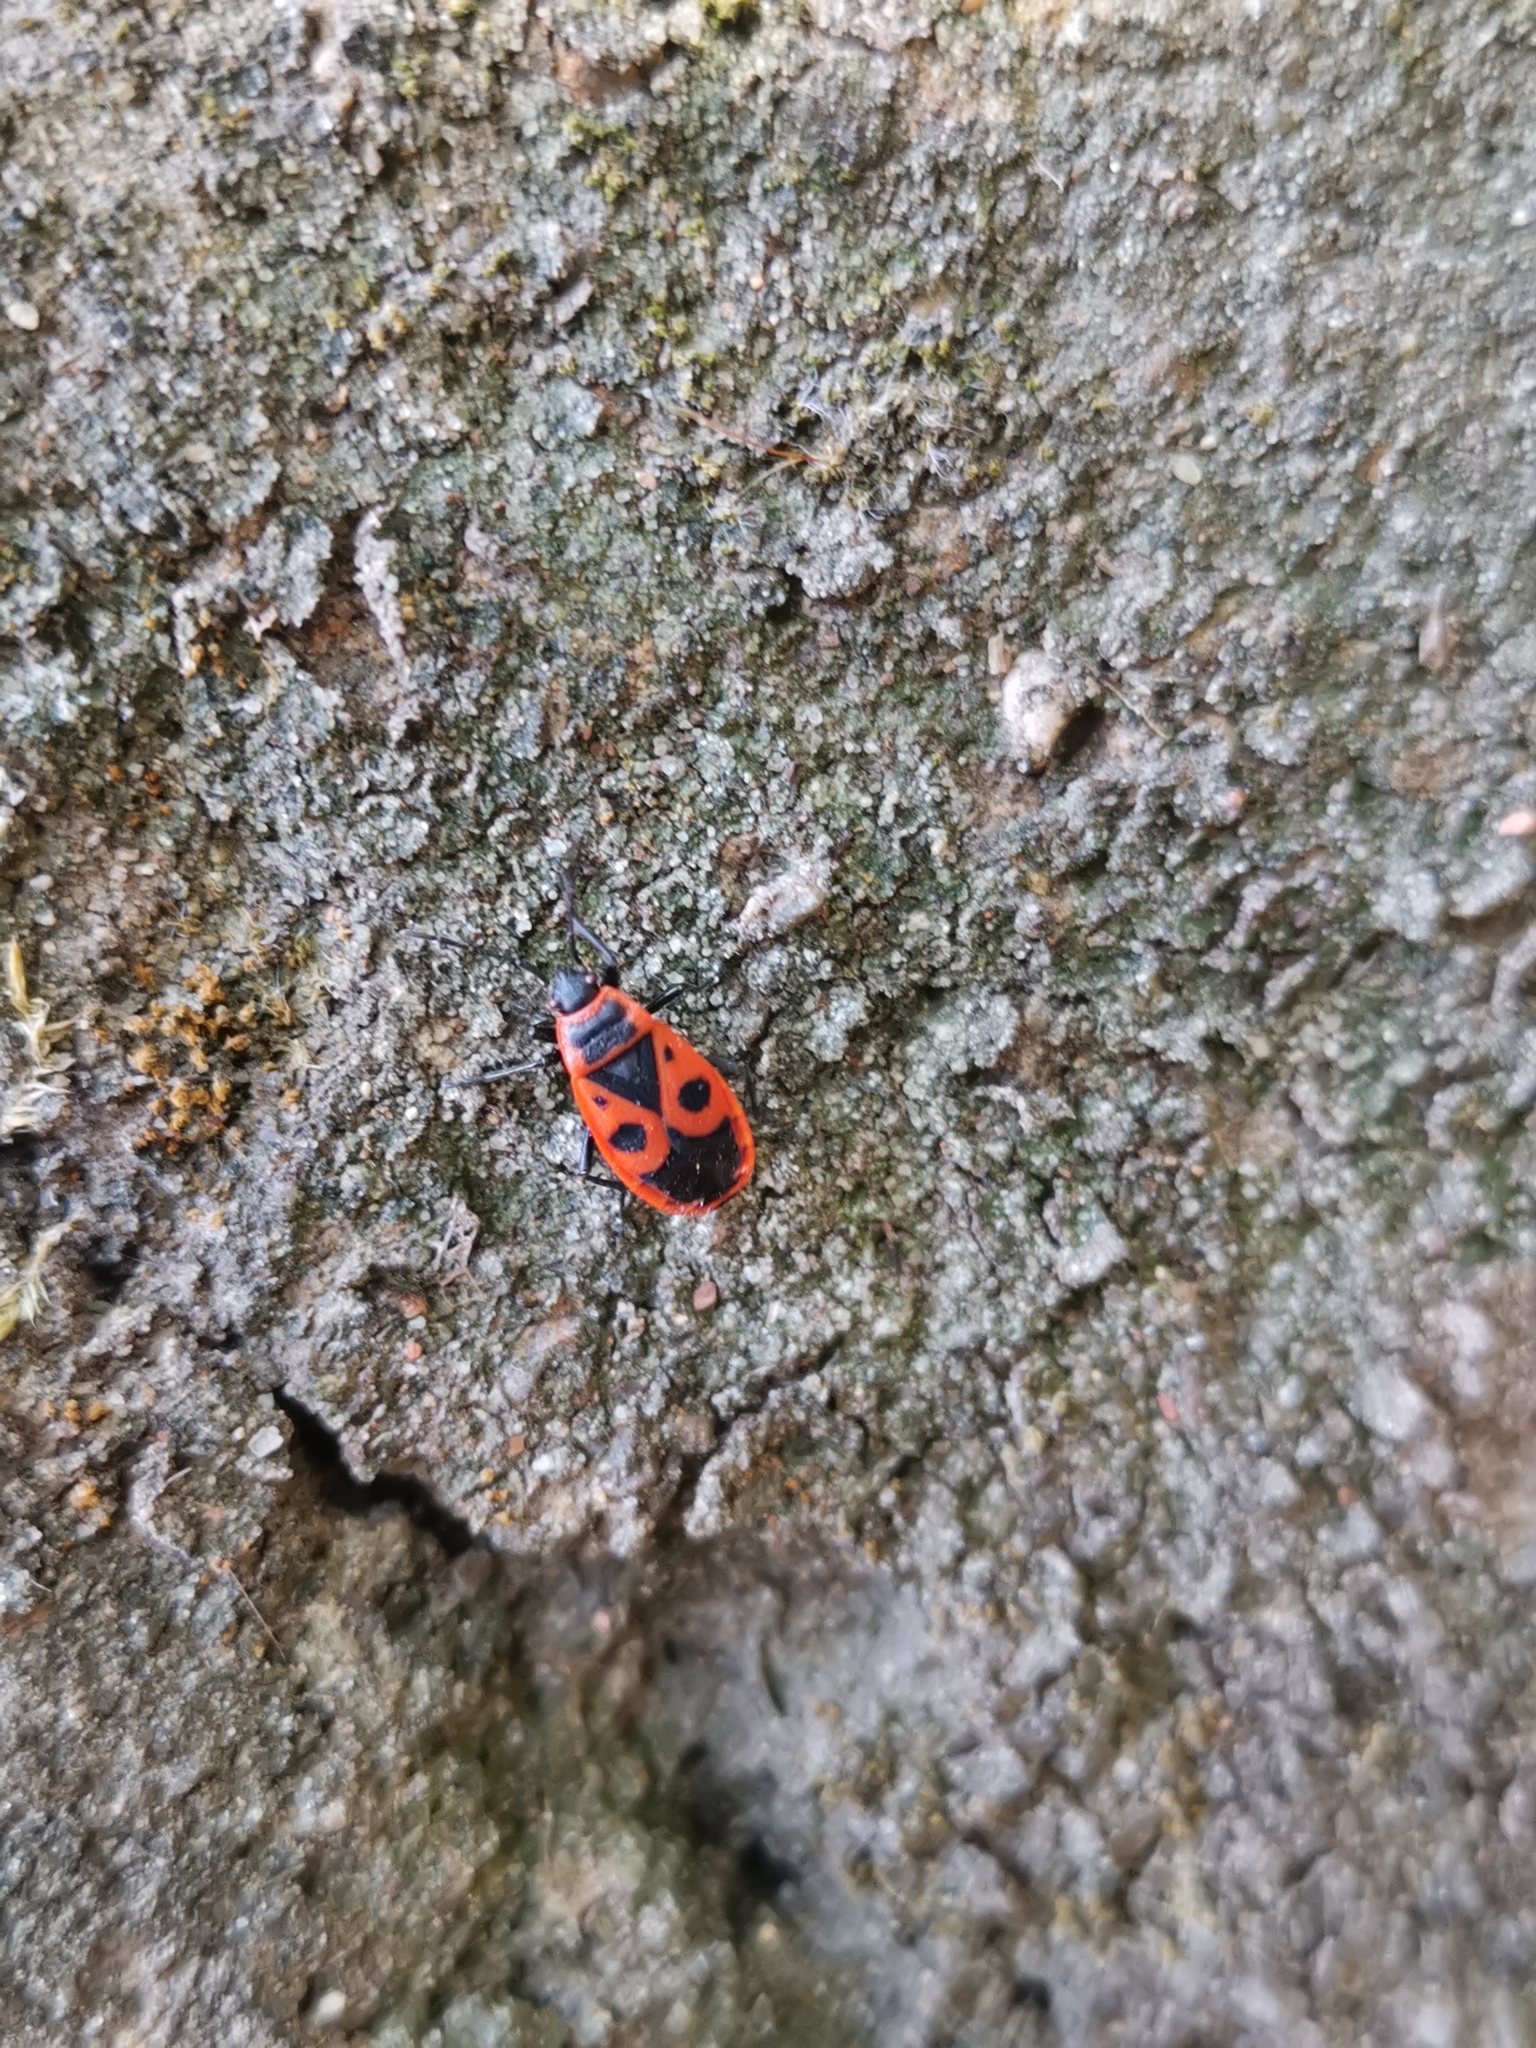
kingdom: Animalia
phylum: Arthropoda
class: Insecta
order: Hemiptera
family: Pyrrhocoridae
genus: Pyrrhocoris
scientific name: Pyrrhocoris apterus
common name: Firebug
